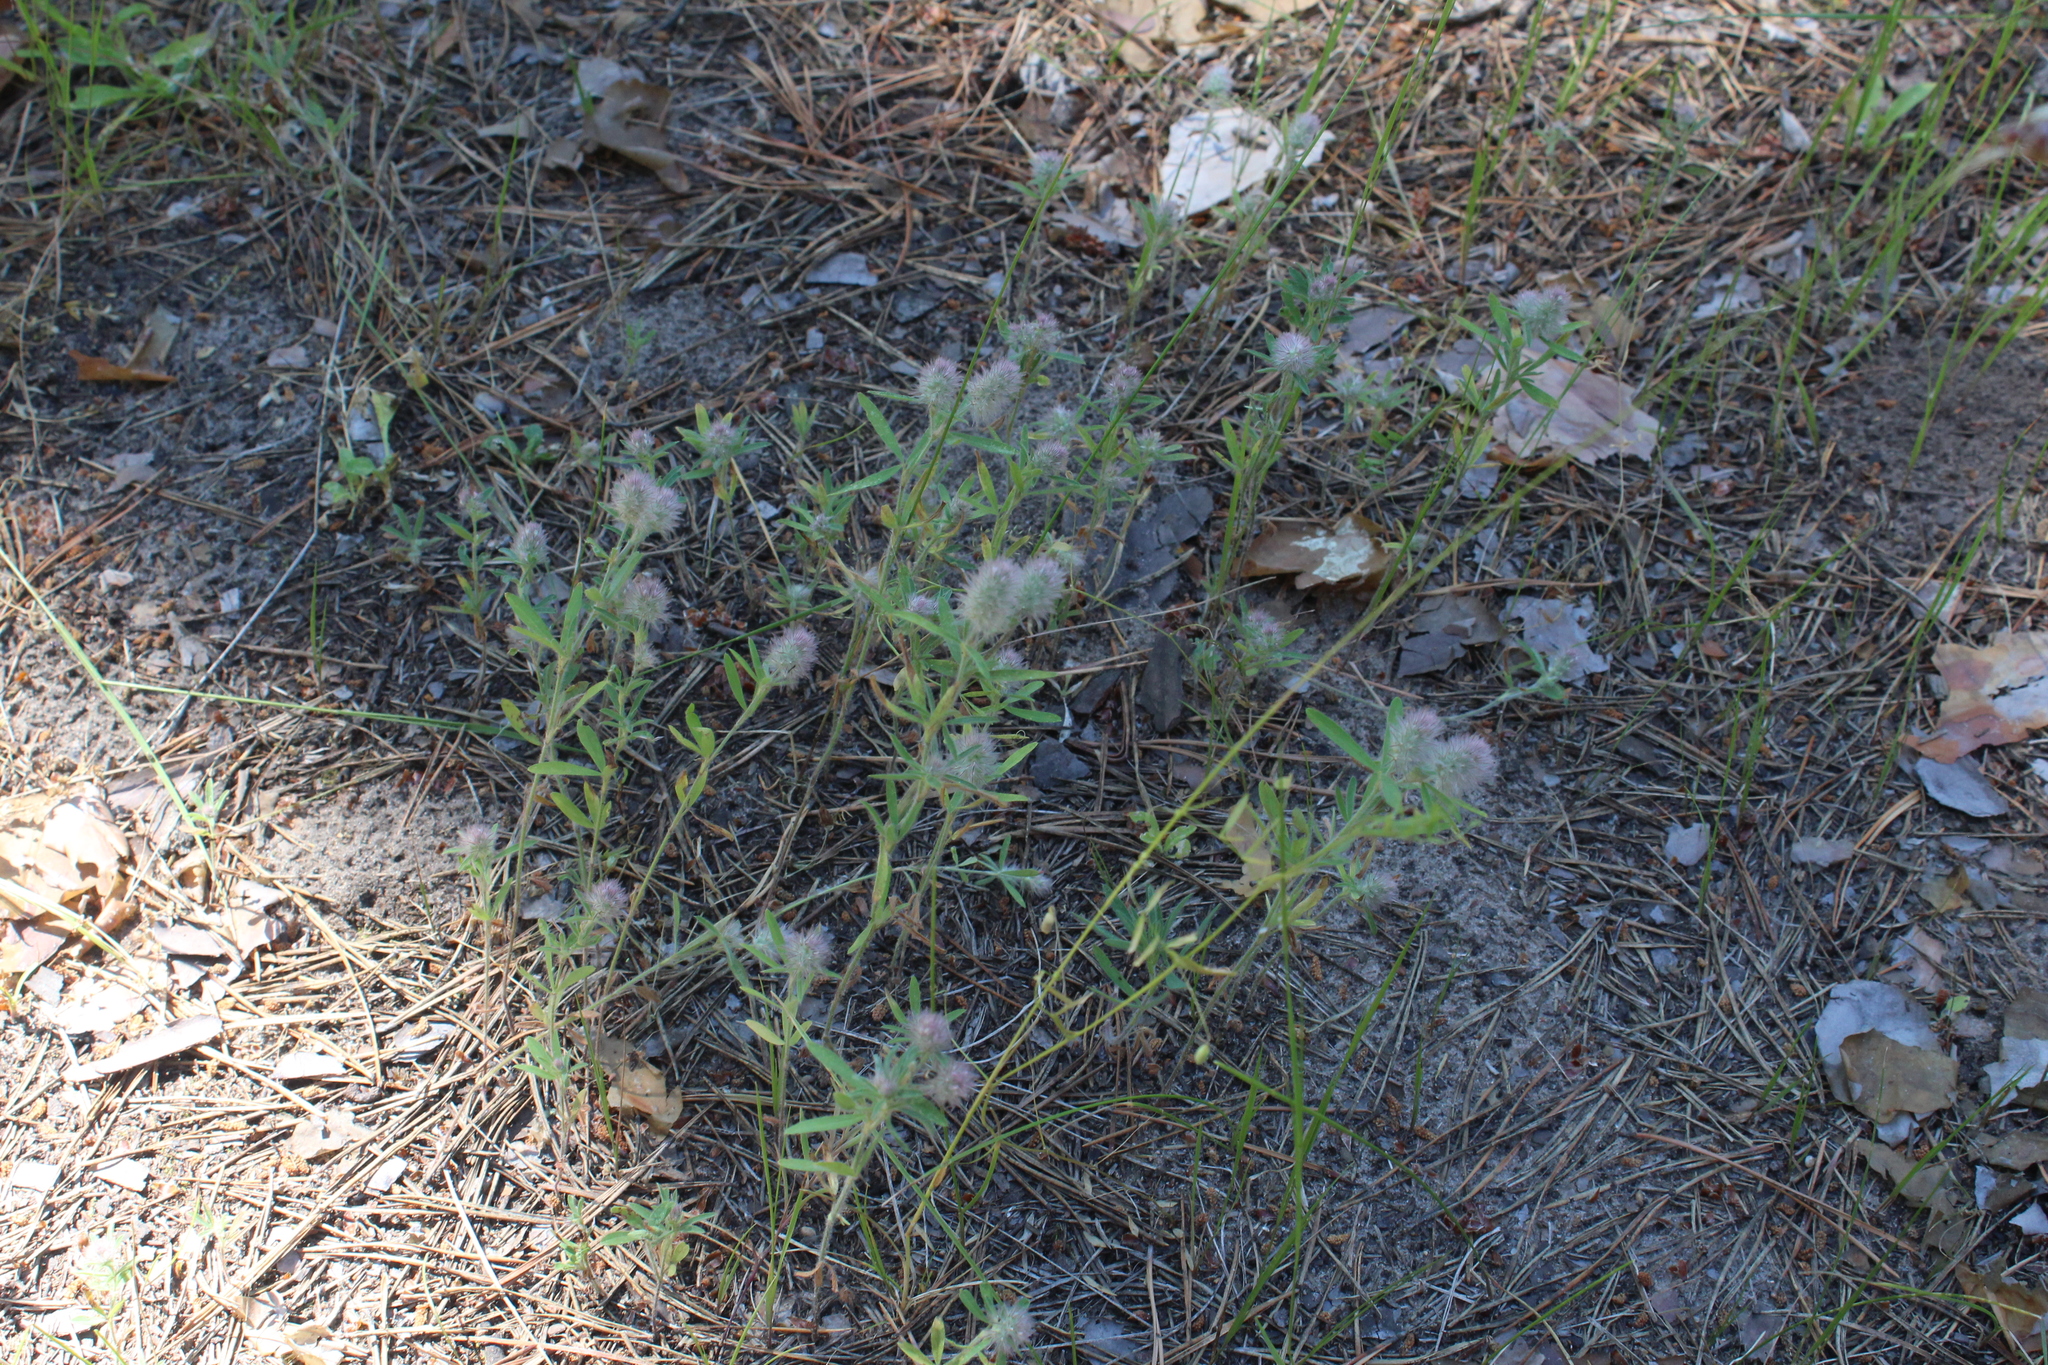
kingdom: Plantae
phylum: Tracheophyta
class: Magnoliopsida
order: Fabales
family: Fabaceae
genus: Trifolium
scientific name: Trifolium arvense
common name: Hare's-foot clover
